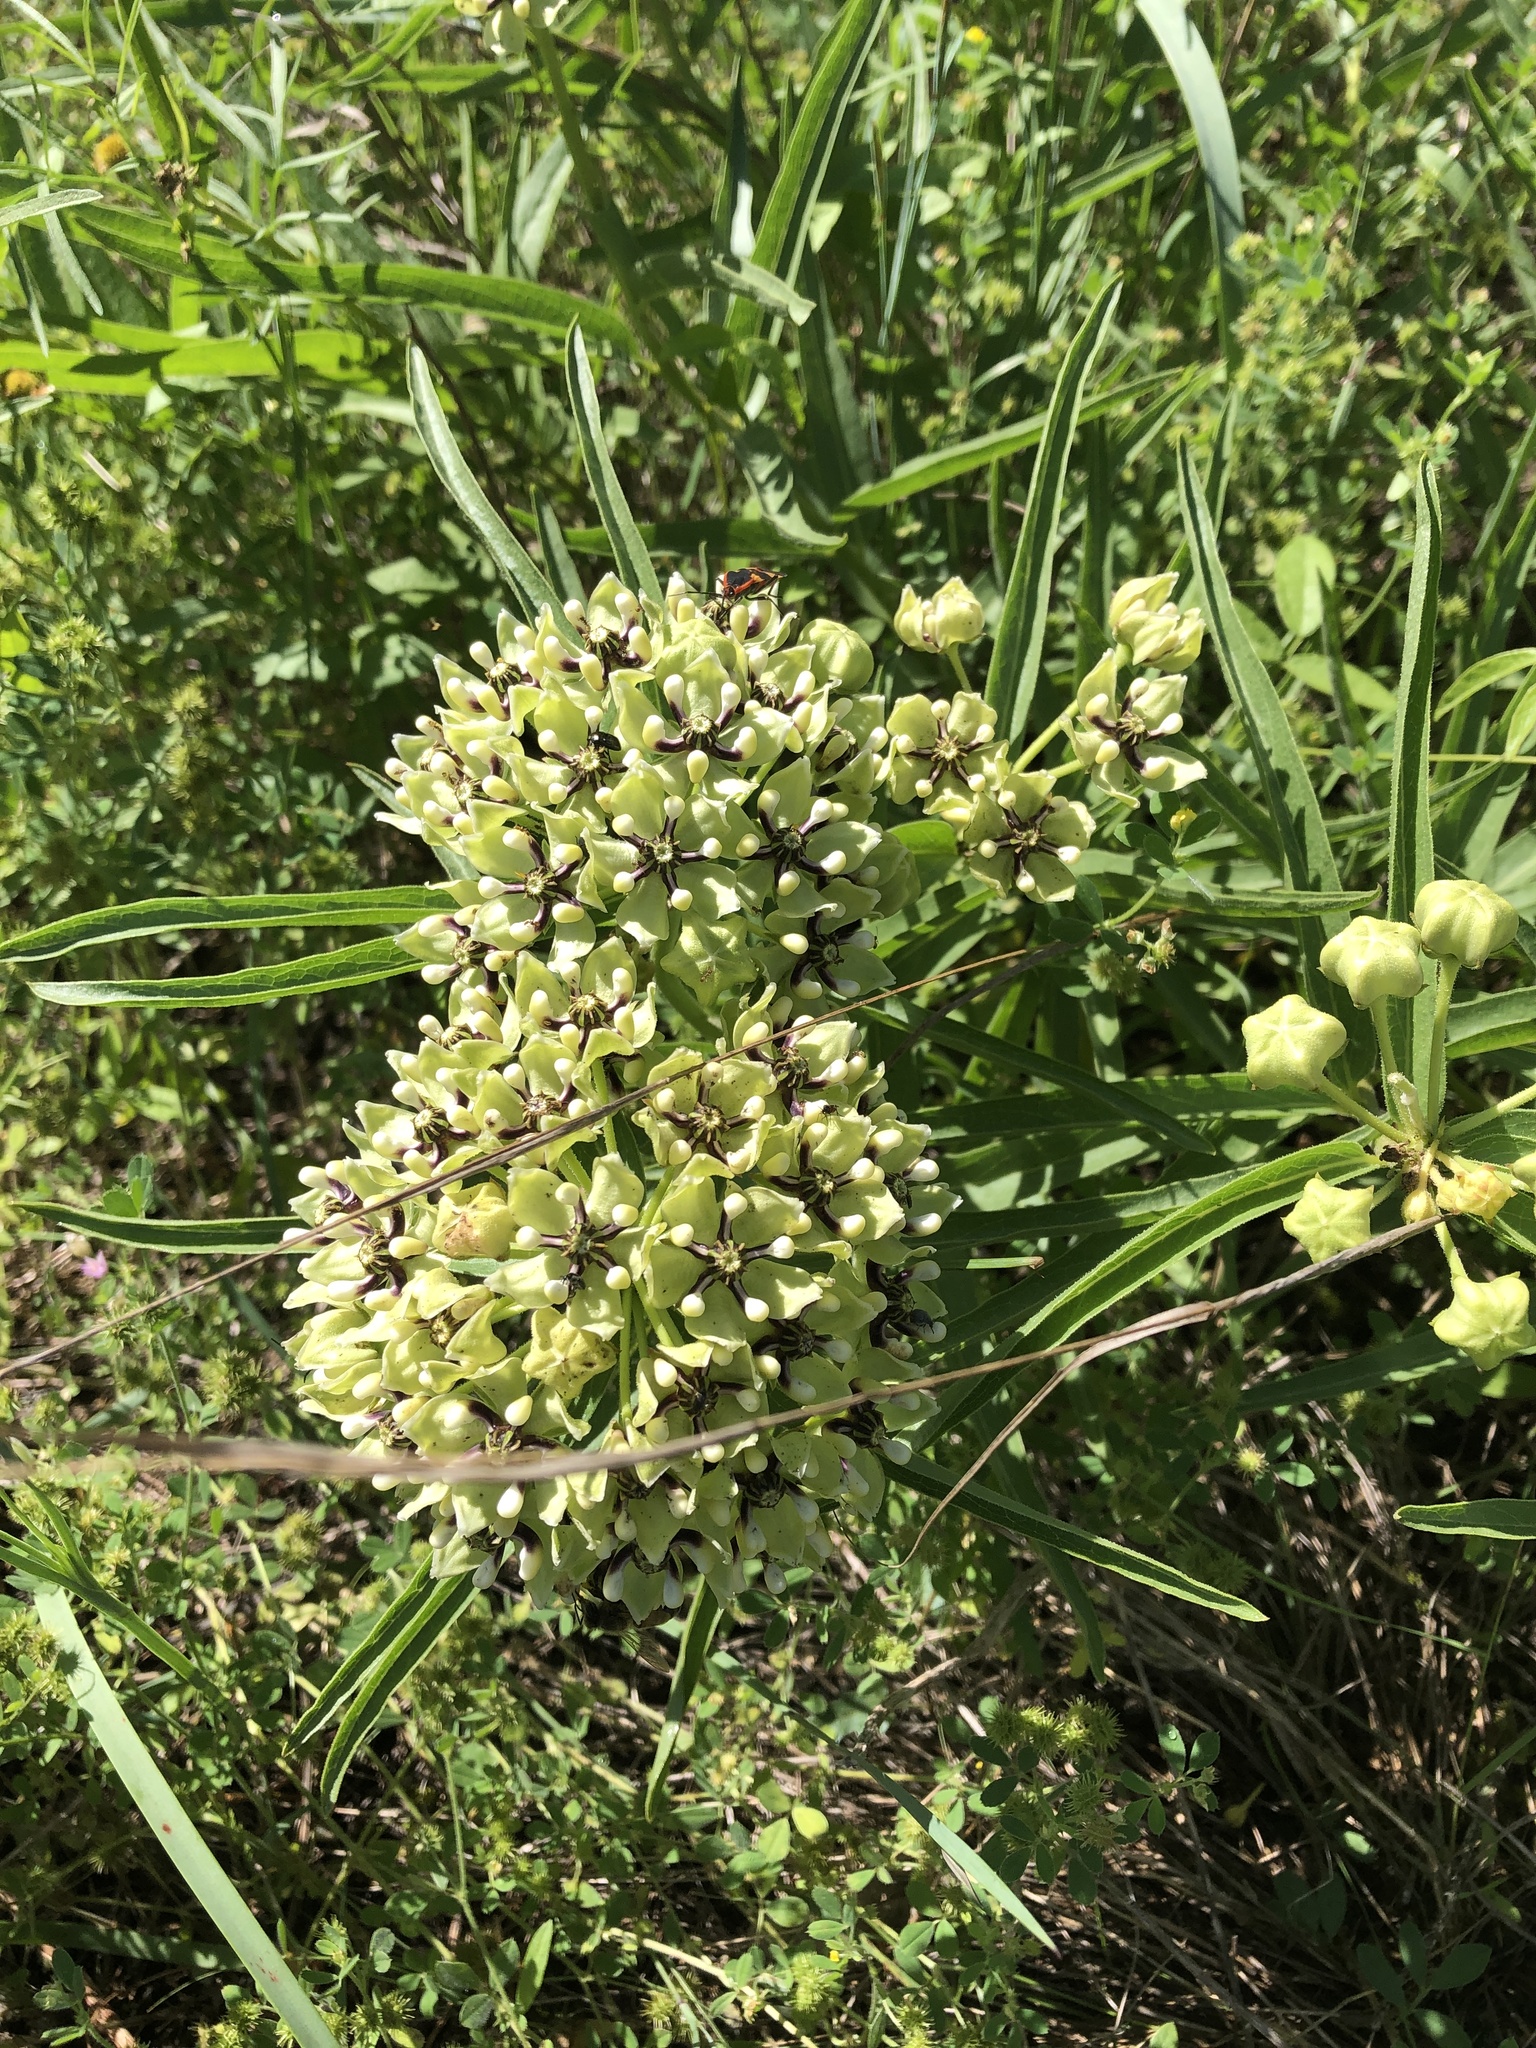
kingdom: Plantae
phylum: Tracheophyta
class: Magnoliopsida
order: Gentianales
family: Apocynaceae
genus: Asclepias
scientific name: Asclepias asperula
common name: Antelope horns
